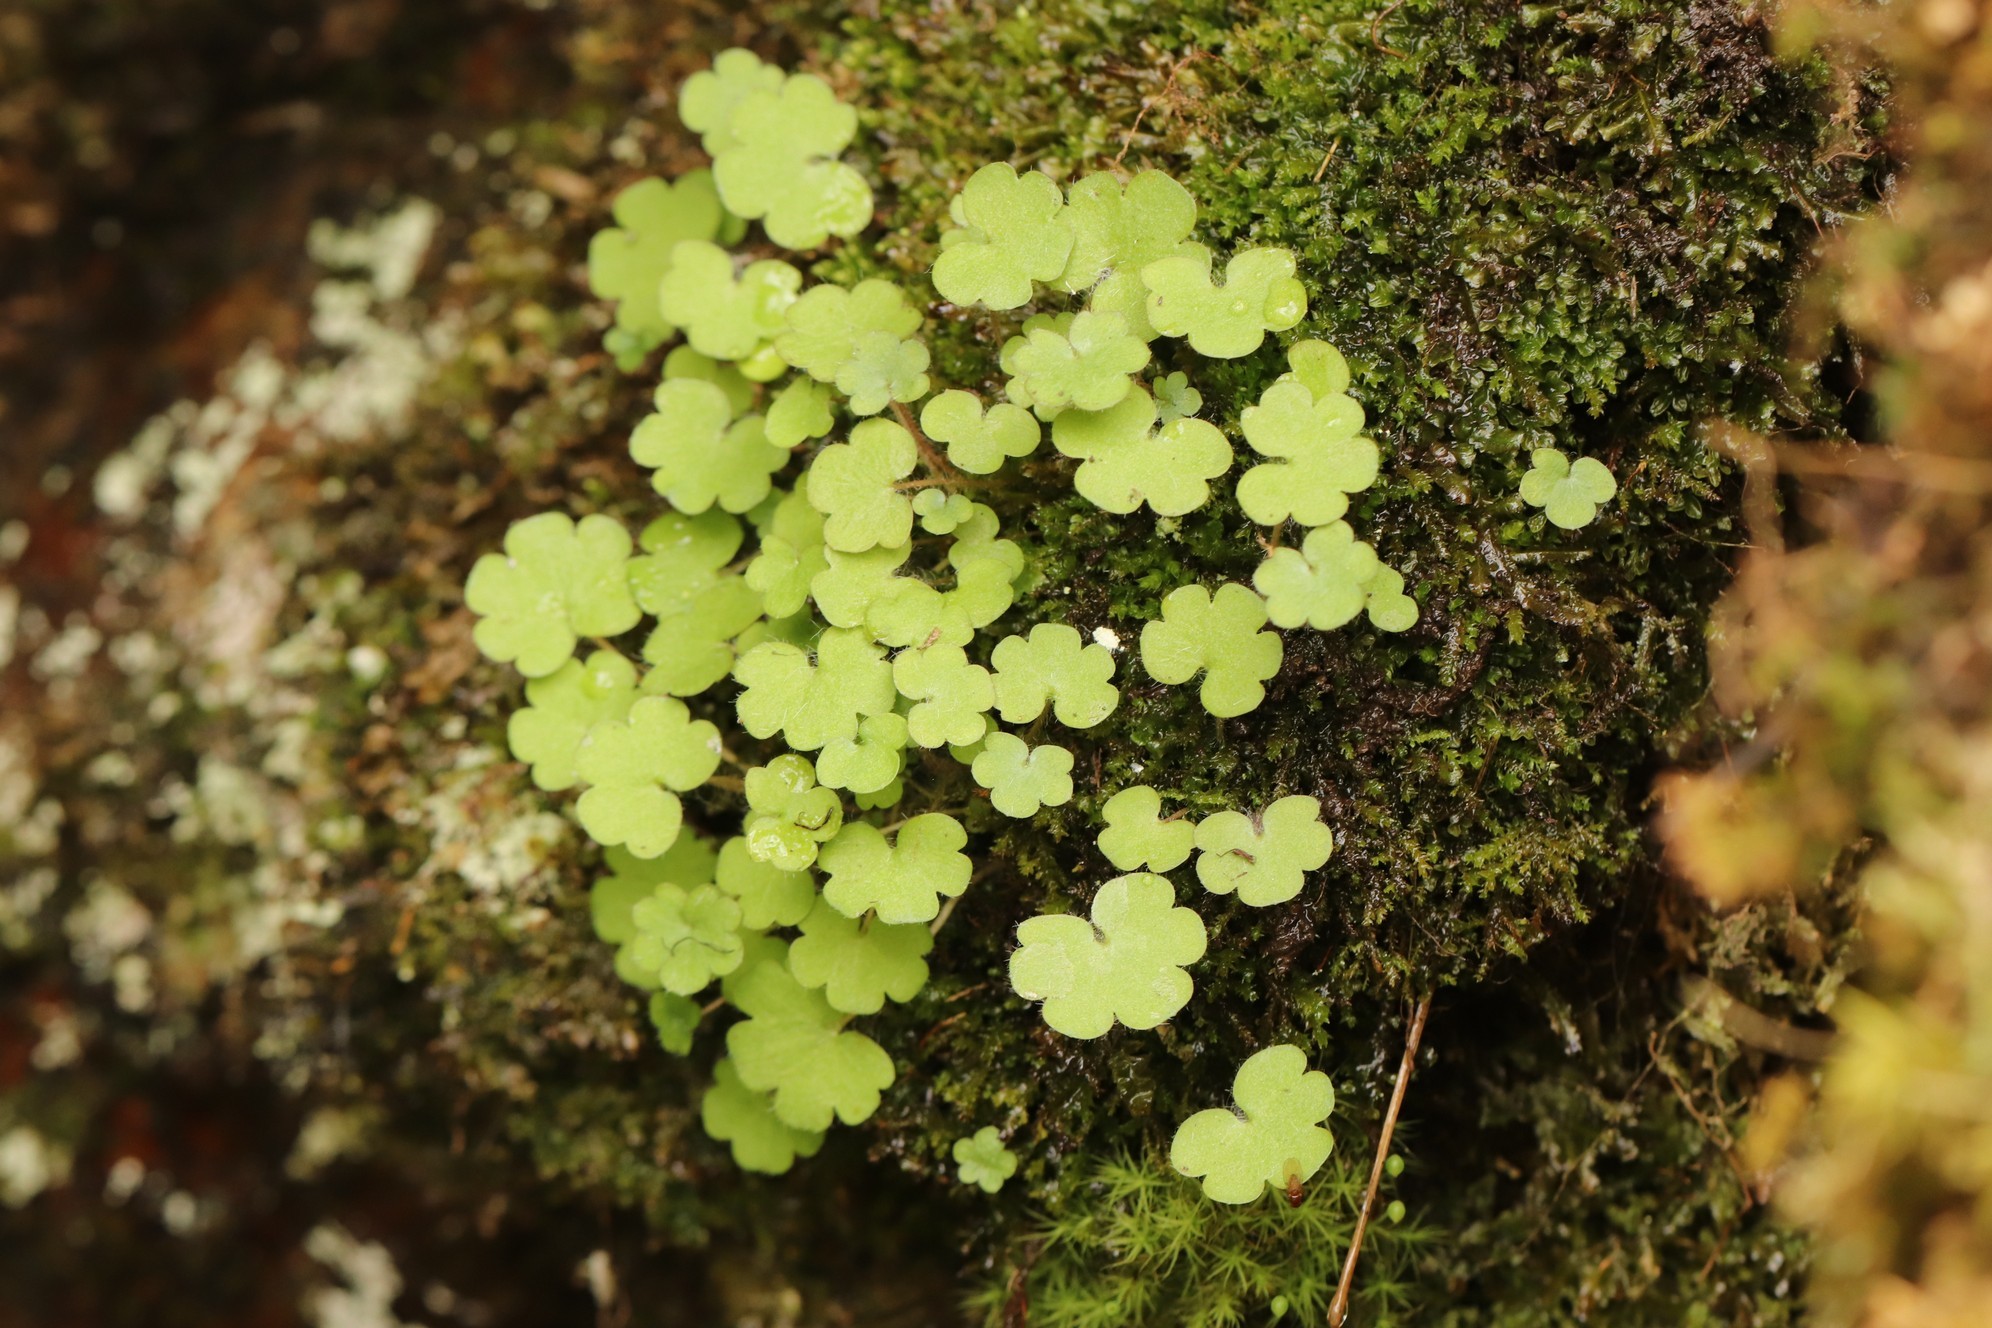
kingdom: Plantae
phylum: Tracheophyta
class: Magnoliopsida
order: Saxifragales
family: Saxifragaceae
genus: Saxifraga
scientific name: Saxifraga sibirica
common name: Siberian saxifrage
